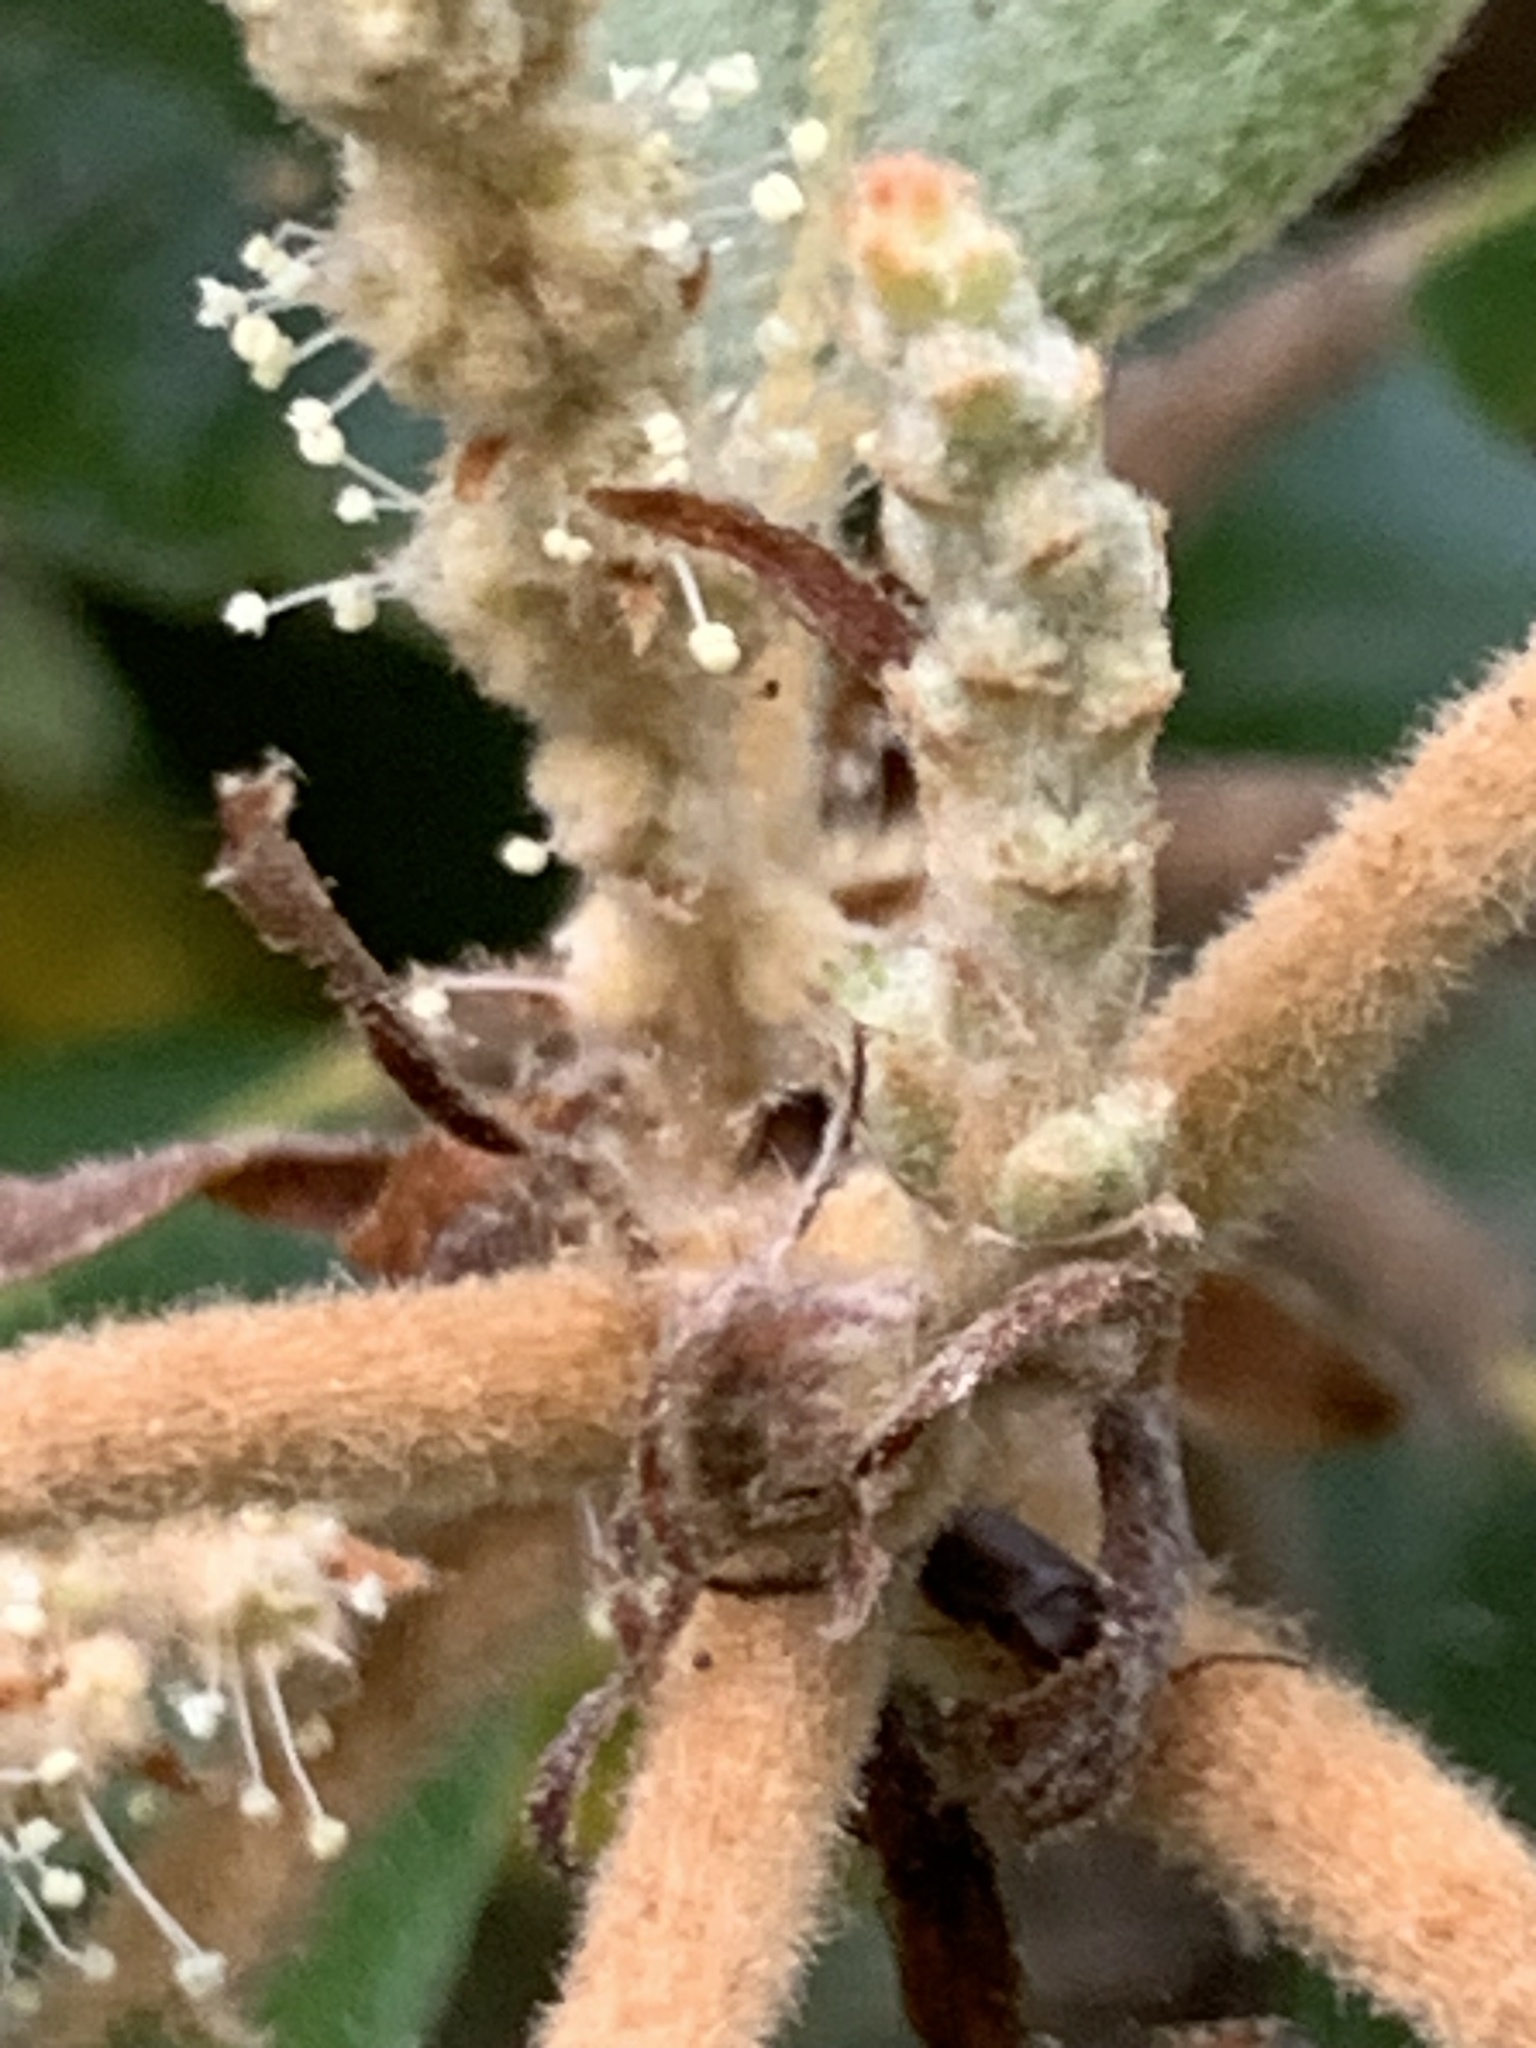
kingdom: Plantae
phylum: Tracheophyta
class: Magnoliopsida
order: Fagales
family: Fagaceae
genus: Notholithocarpus
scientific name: Notholithocarpus densiflorus
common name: Tan bark oak
